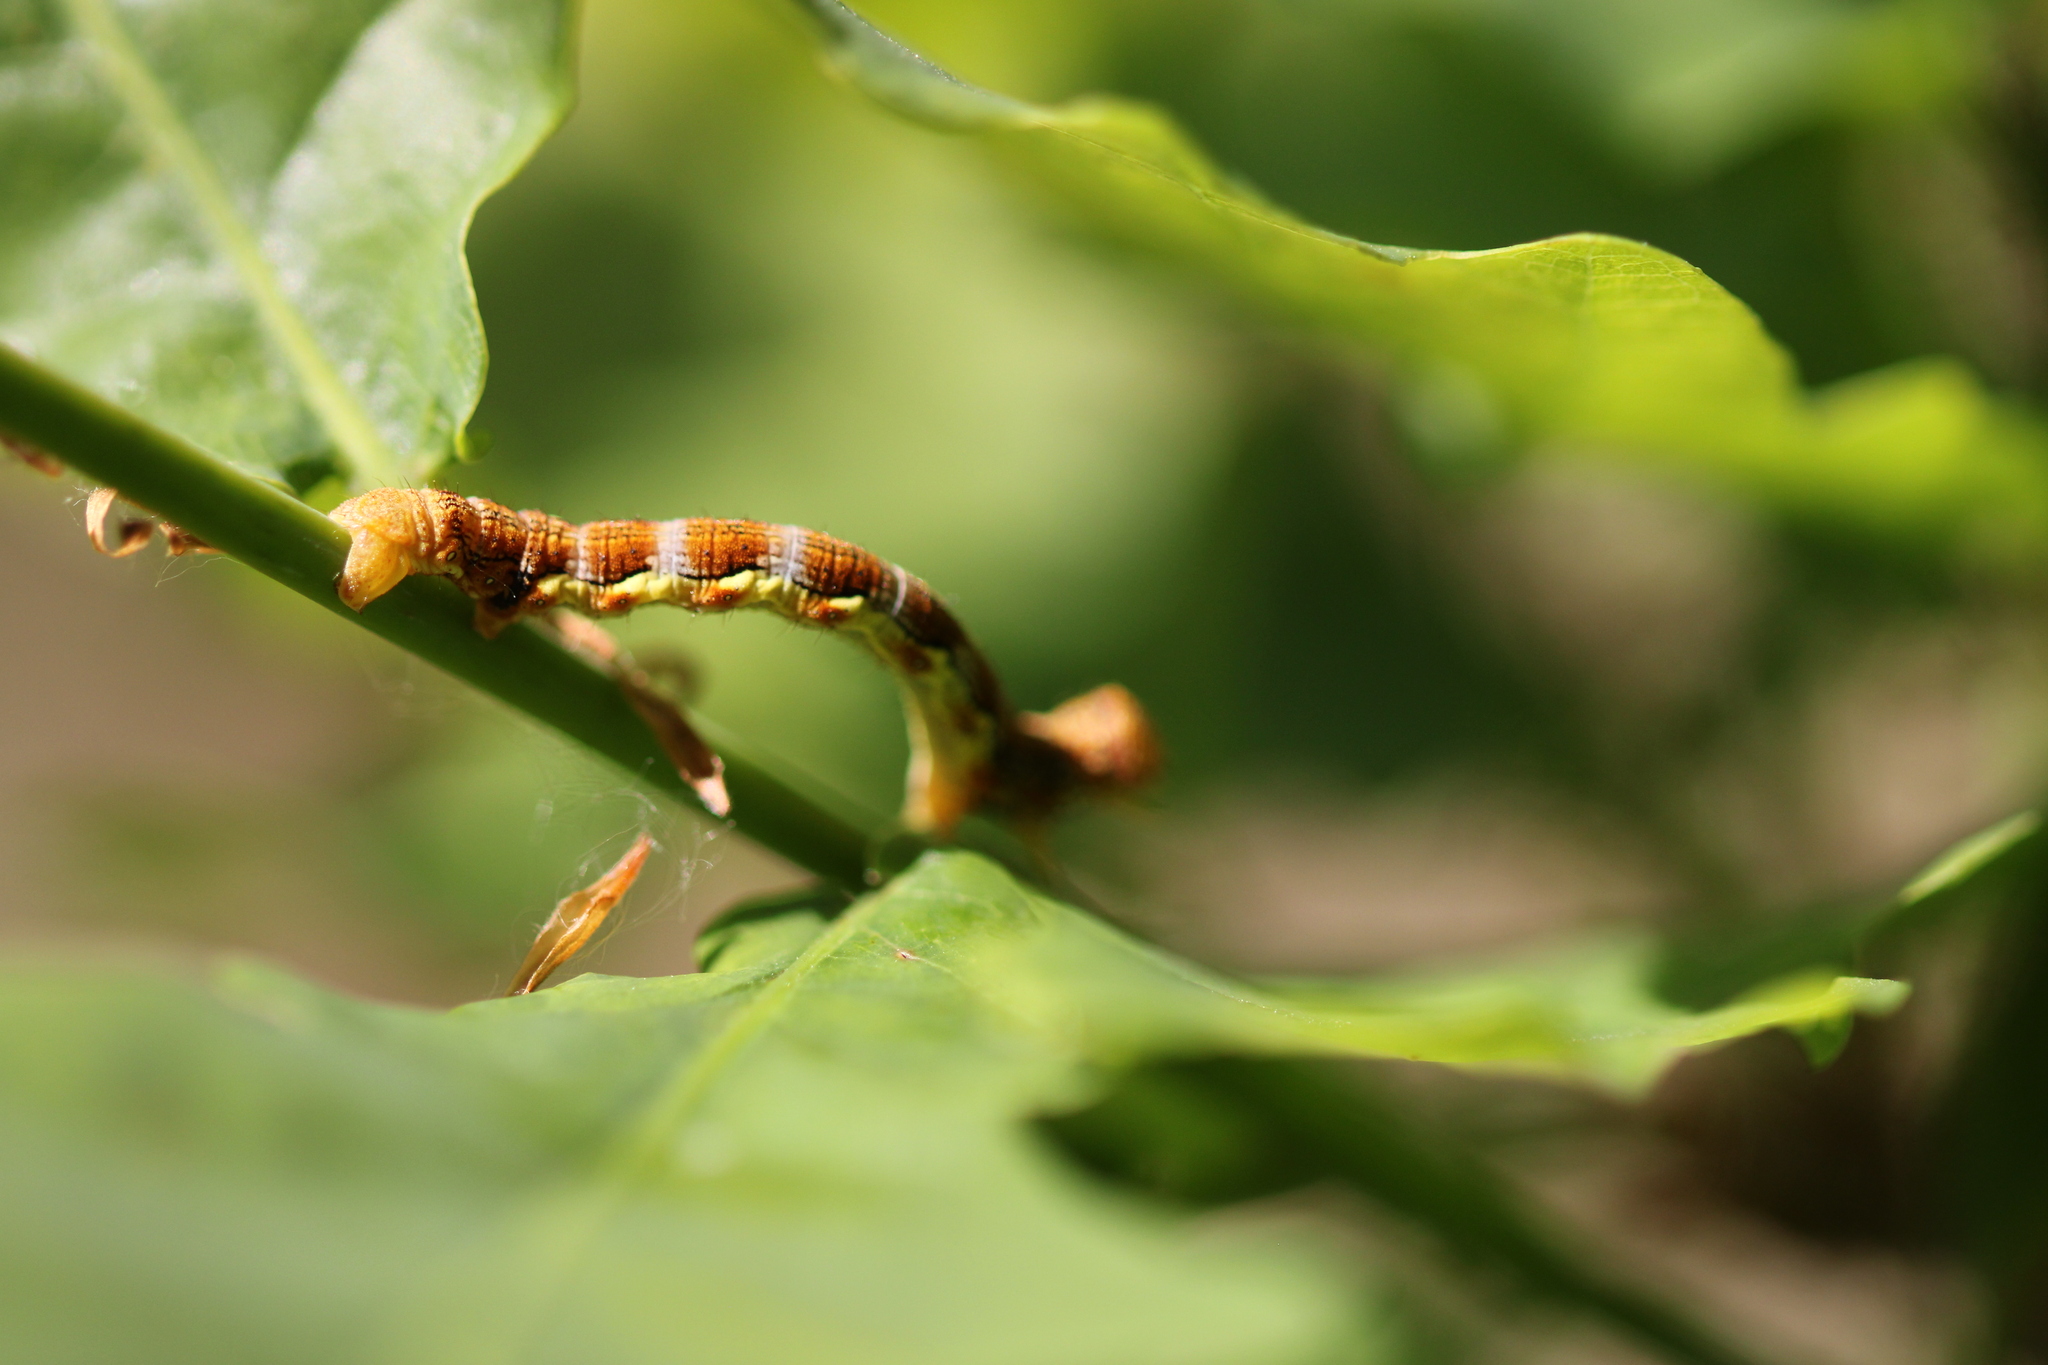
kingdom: Animalia
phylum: Arthropoda
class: Insecta
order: Lepidoptera
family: Geometridae
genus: Erannis
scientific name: Erannis defoliaria
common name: Mottled umber
